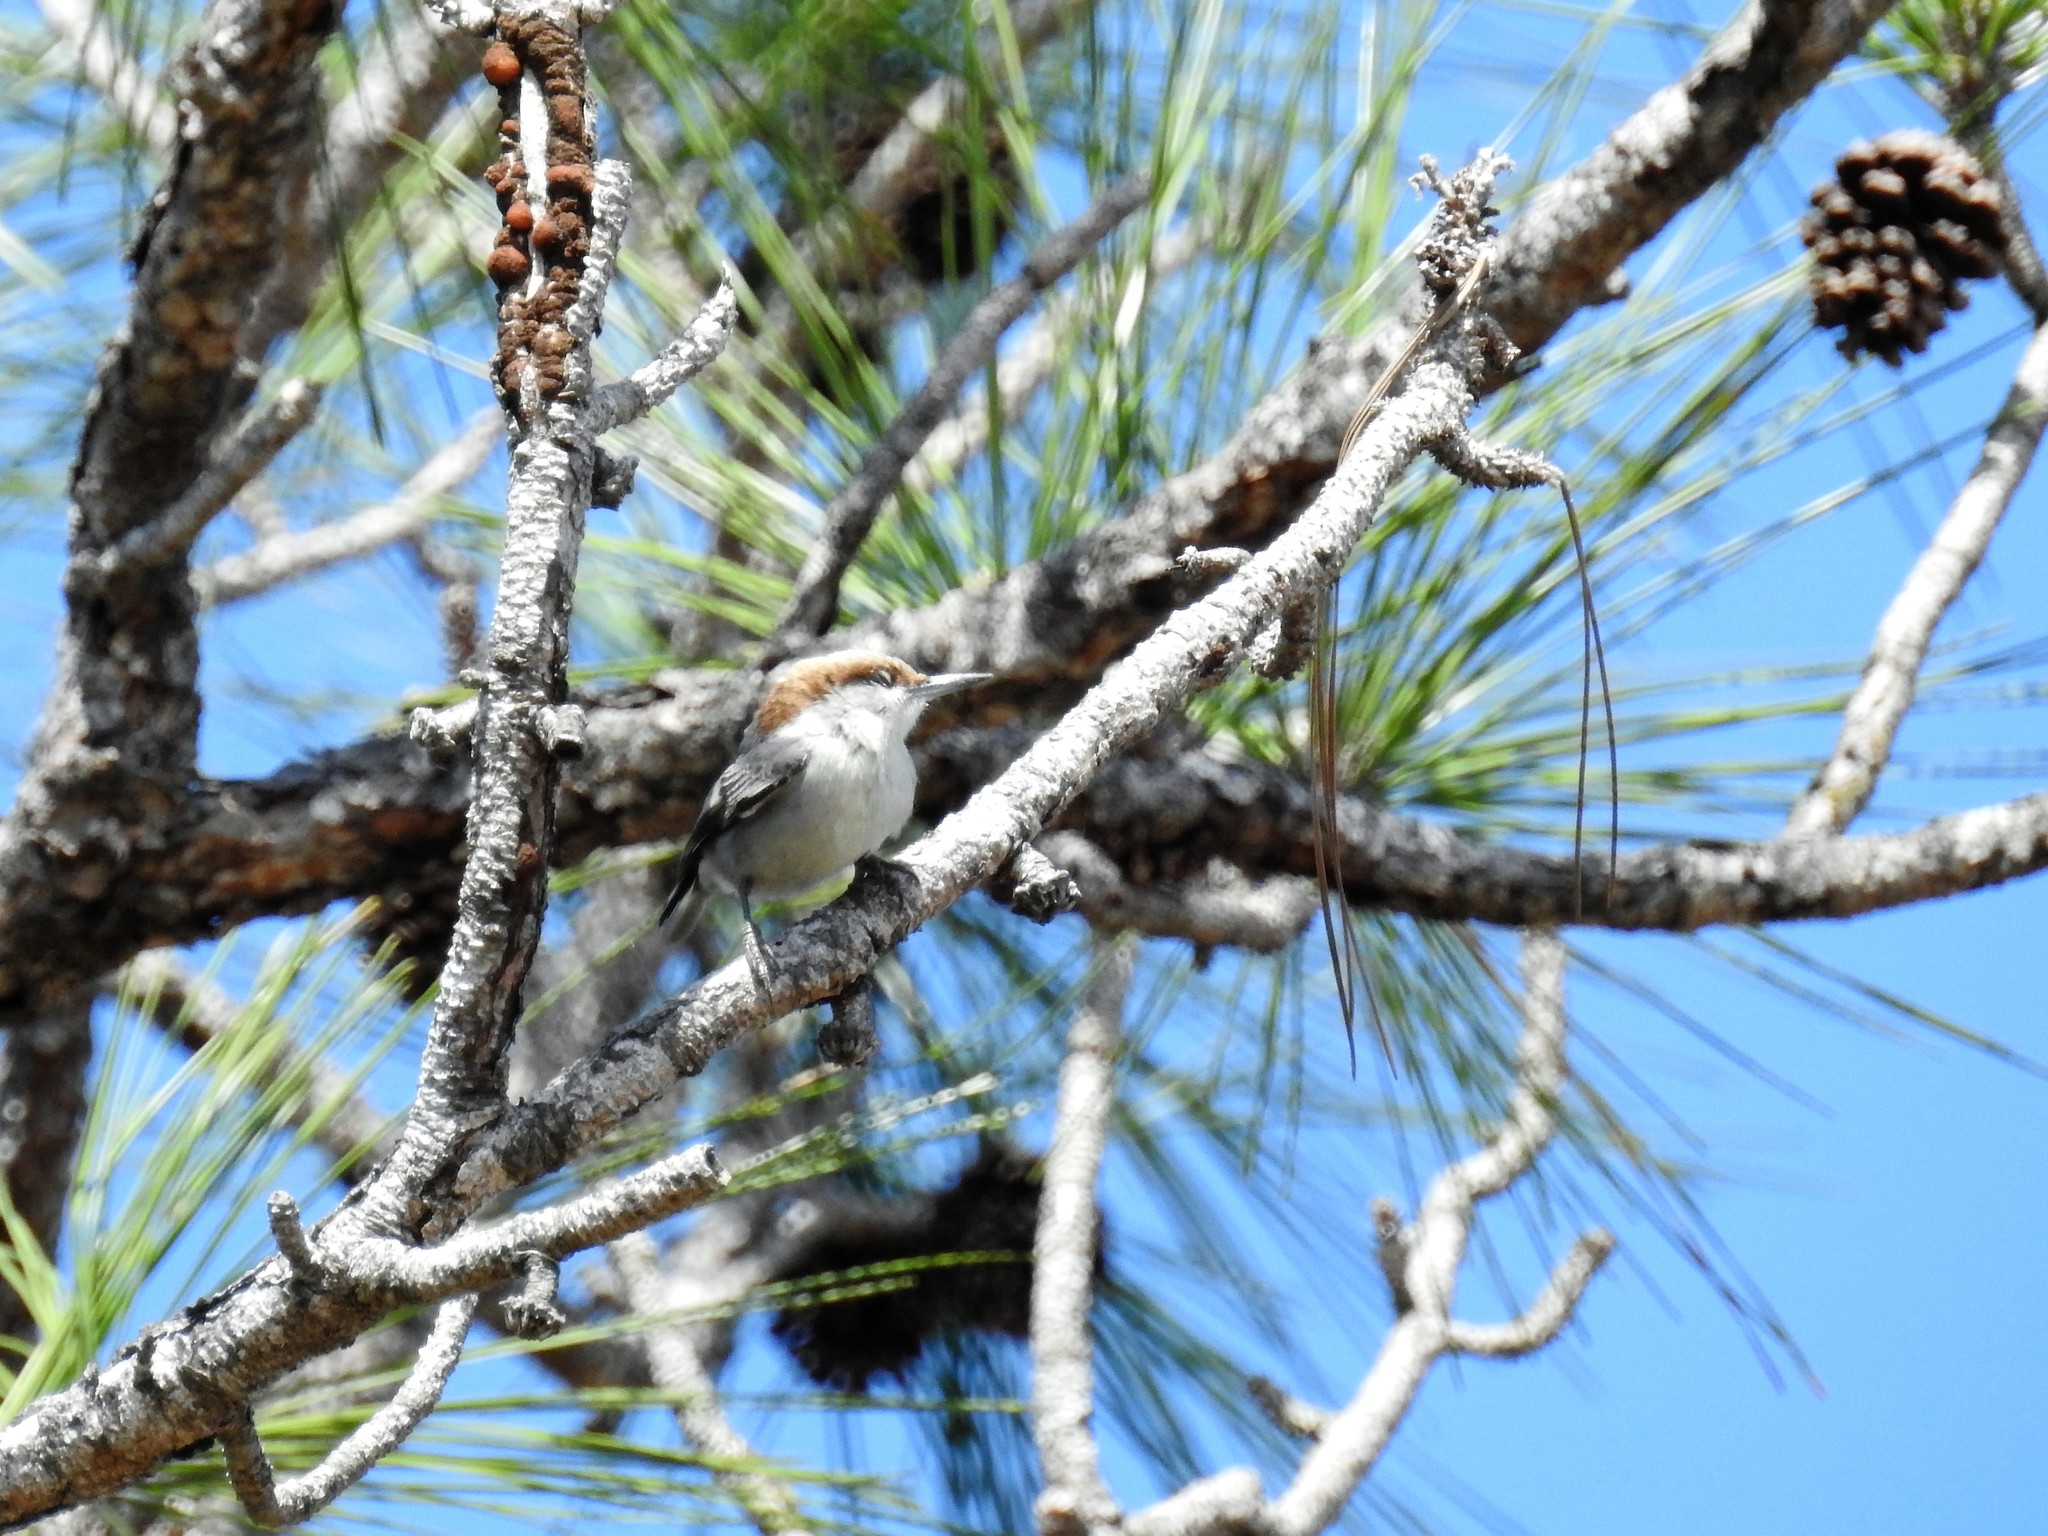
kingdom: Animalia
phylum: Chordata
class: Aves
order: Passeriformes
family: Sittidae
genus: Sitta
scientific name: Sitta pusilla
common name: Brown-headed nuthatch
